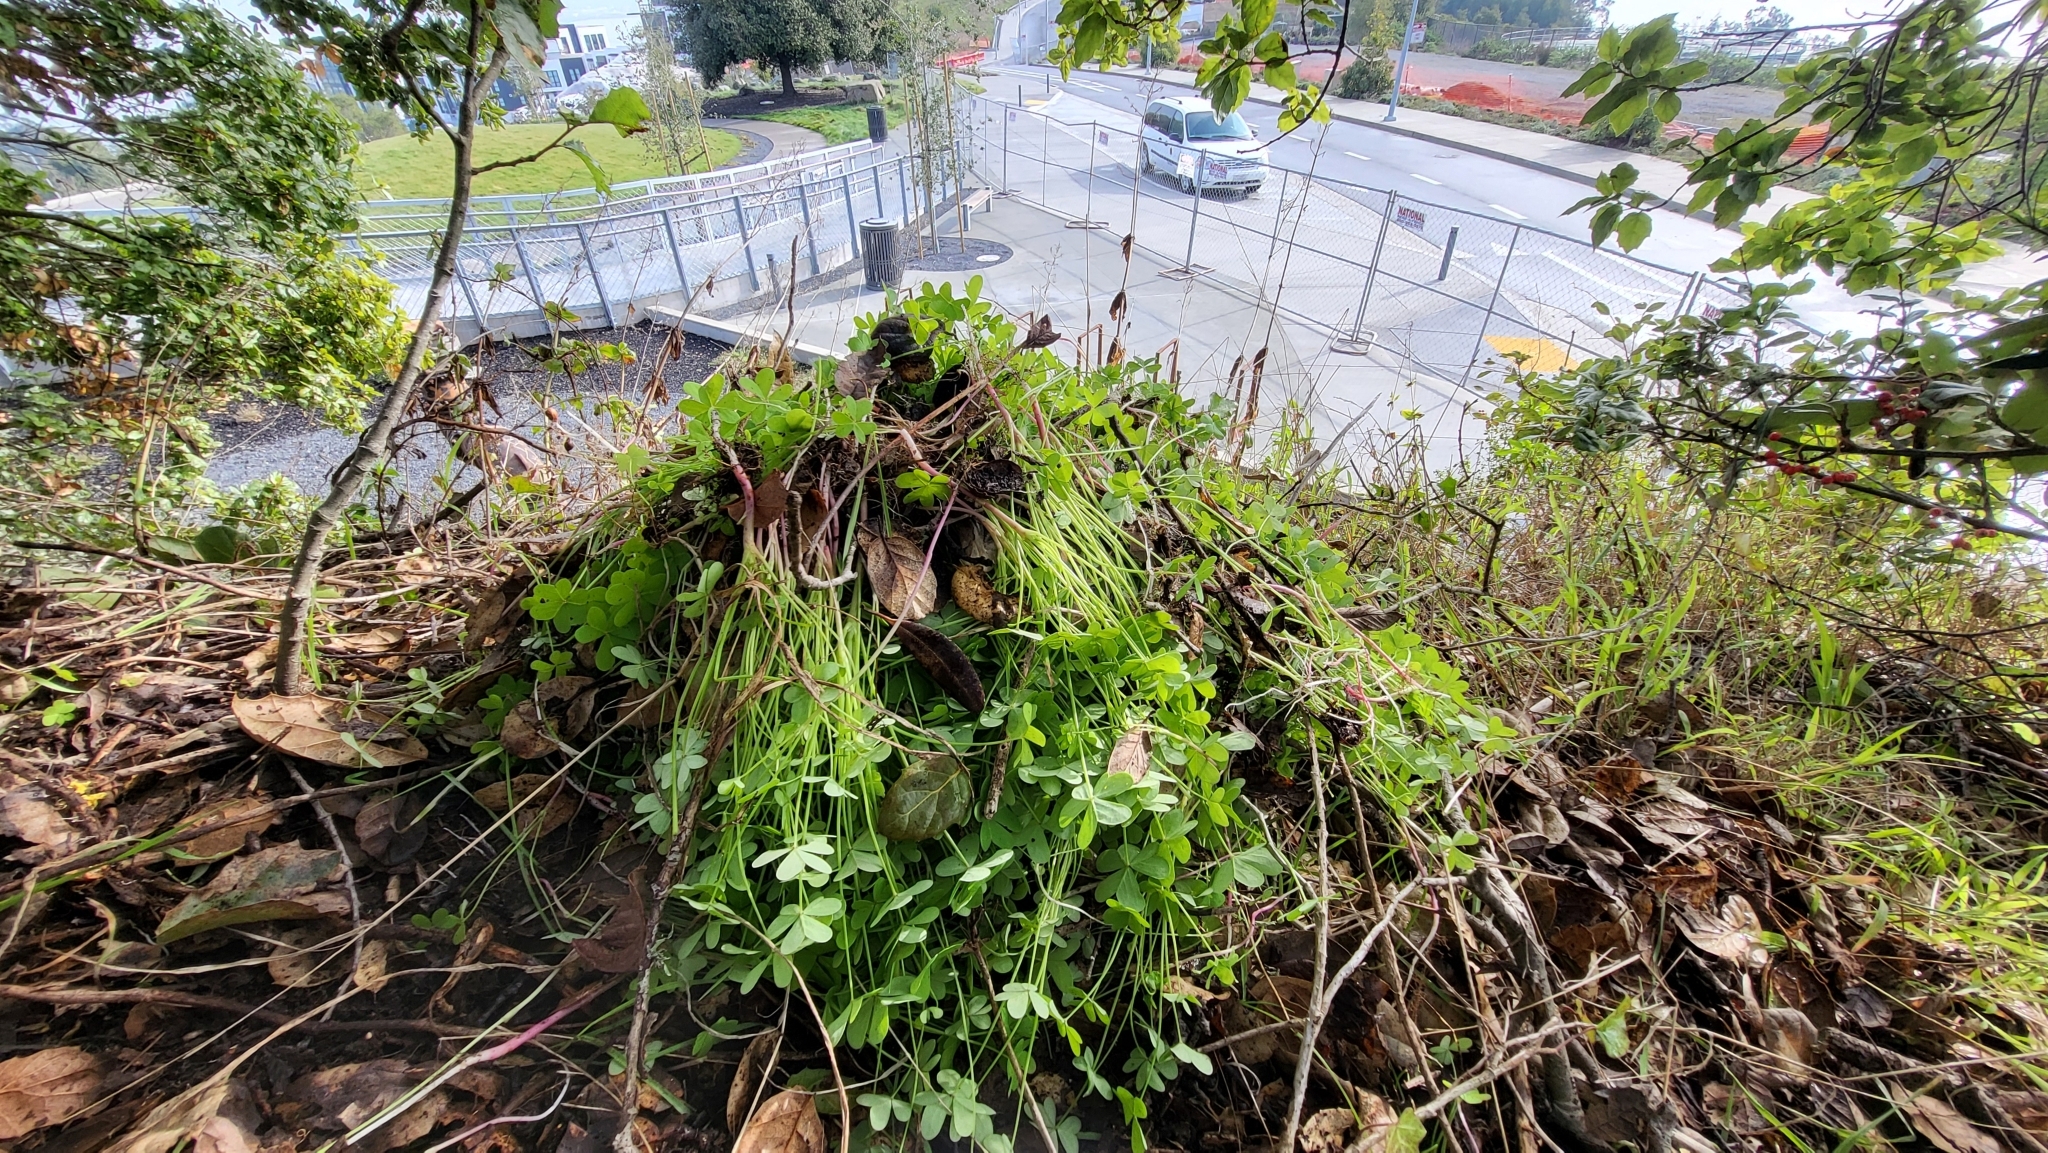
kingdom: Plantae
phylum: Tracheophyta
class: Magnoliopsida
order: Oxalidales
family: Oxalidaceae
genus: Oxalis
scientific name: Oxalis pes-caprae
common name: Bermuda-buttercup
